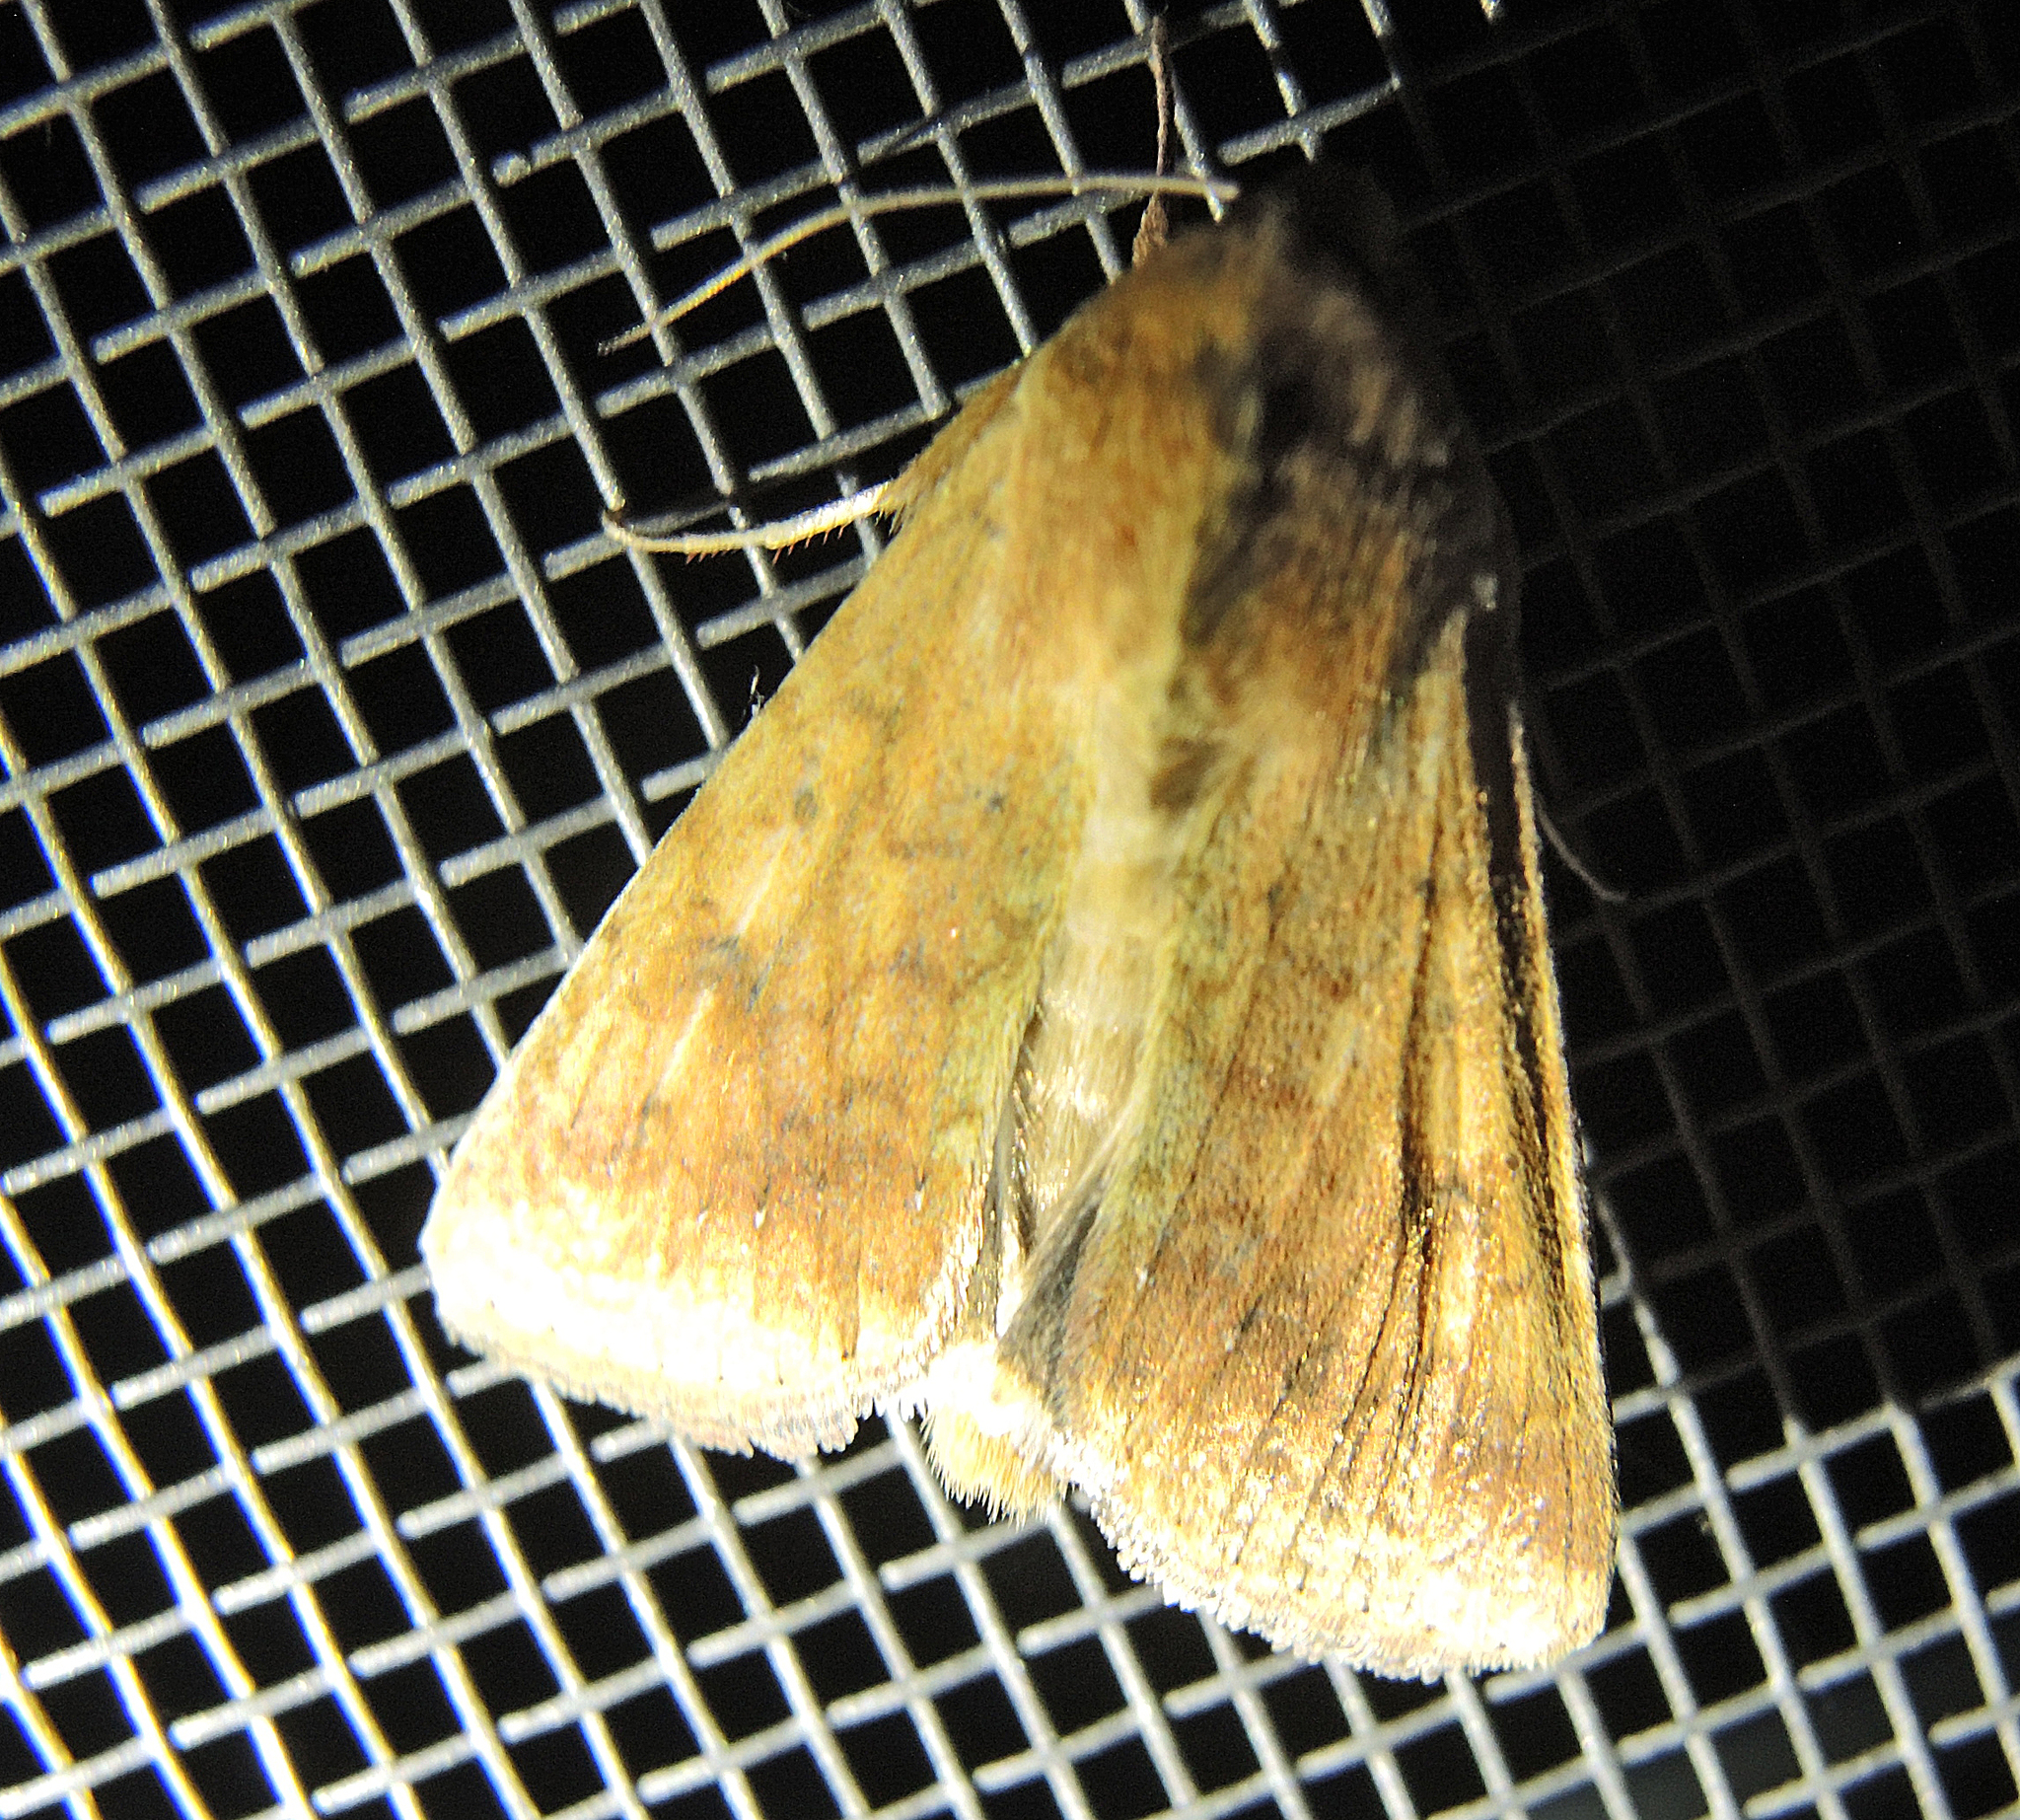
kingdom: Animalia
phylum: Arthropoda
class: Insecta
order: Lepidoptera
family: Noctuidae
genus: Helicoverpa
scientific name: Helicoverpa armigera
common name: Cotton bollworm
